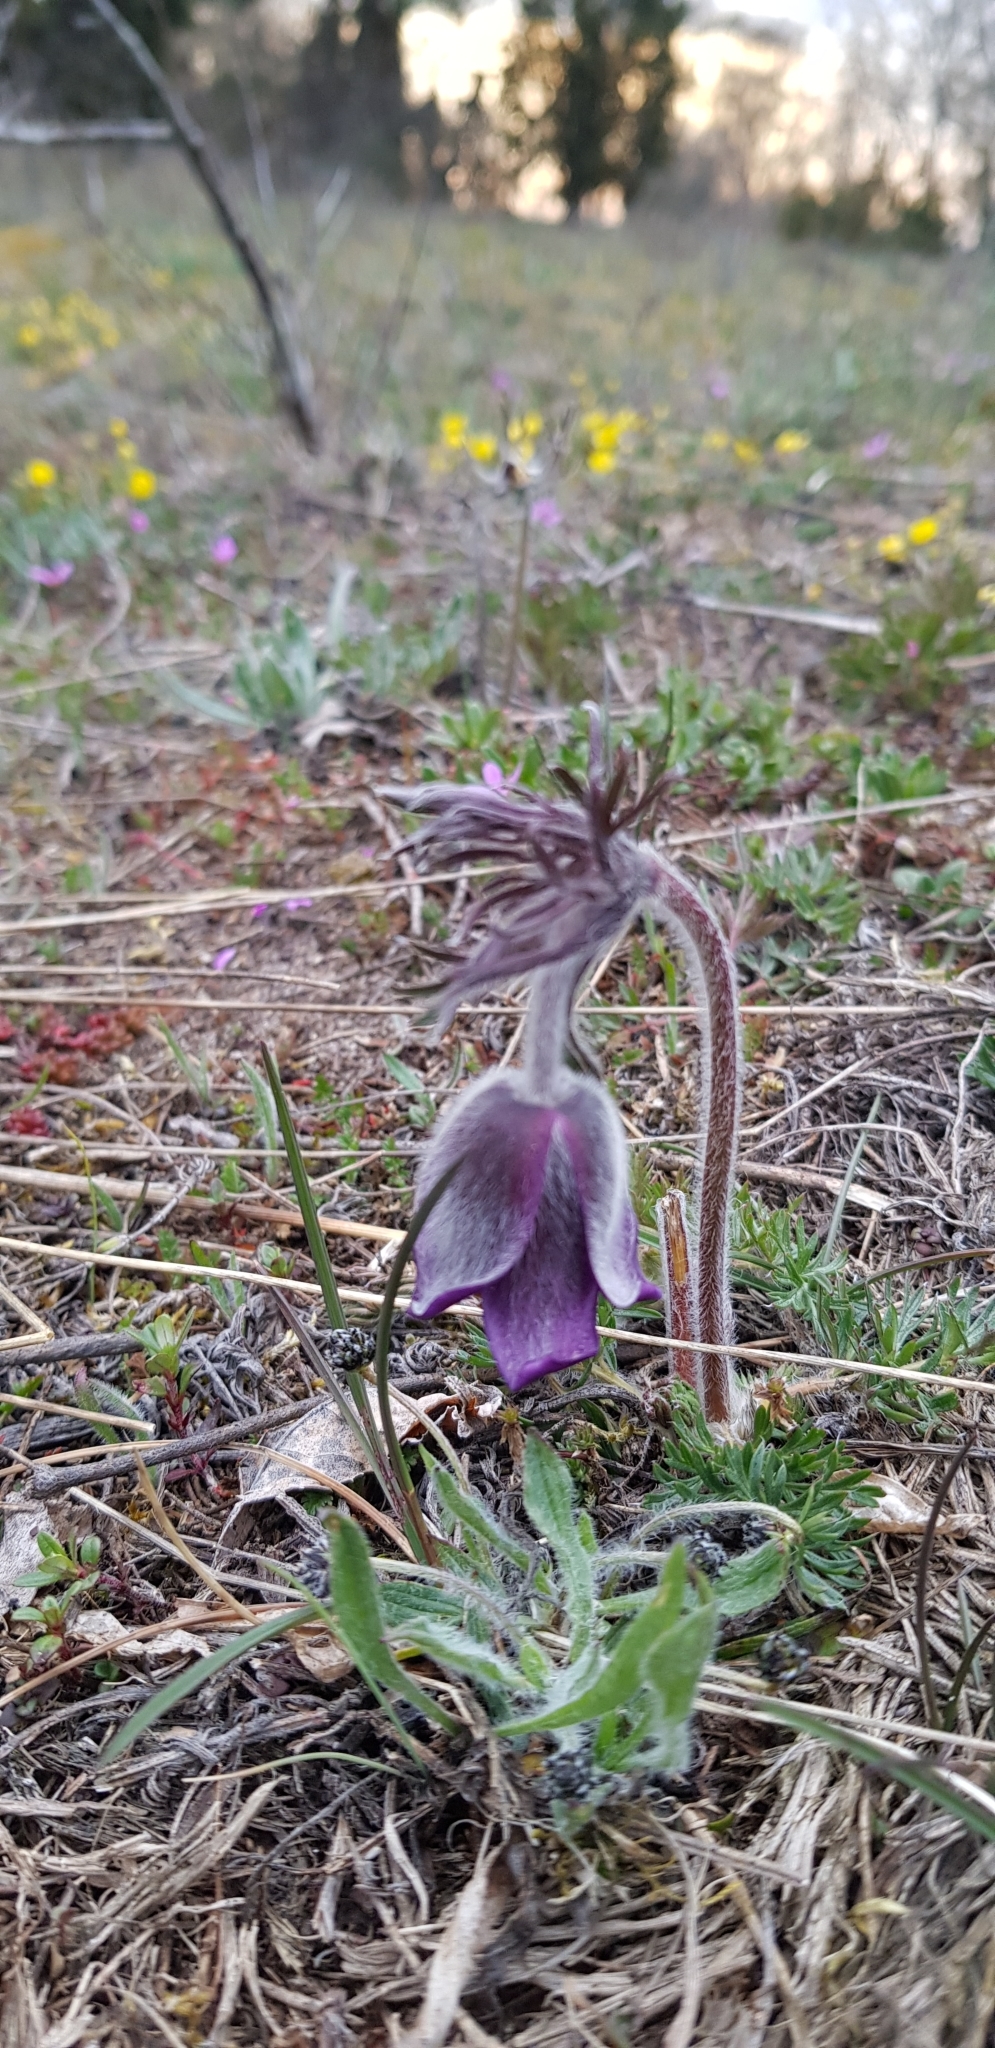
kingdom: Plantae
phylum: Tracheophyta
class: Magnoliopsida
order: Ranunculales
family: Ranunculaceae
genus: Pulsatilla
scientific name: Pulsatilla pratensis
